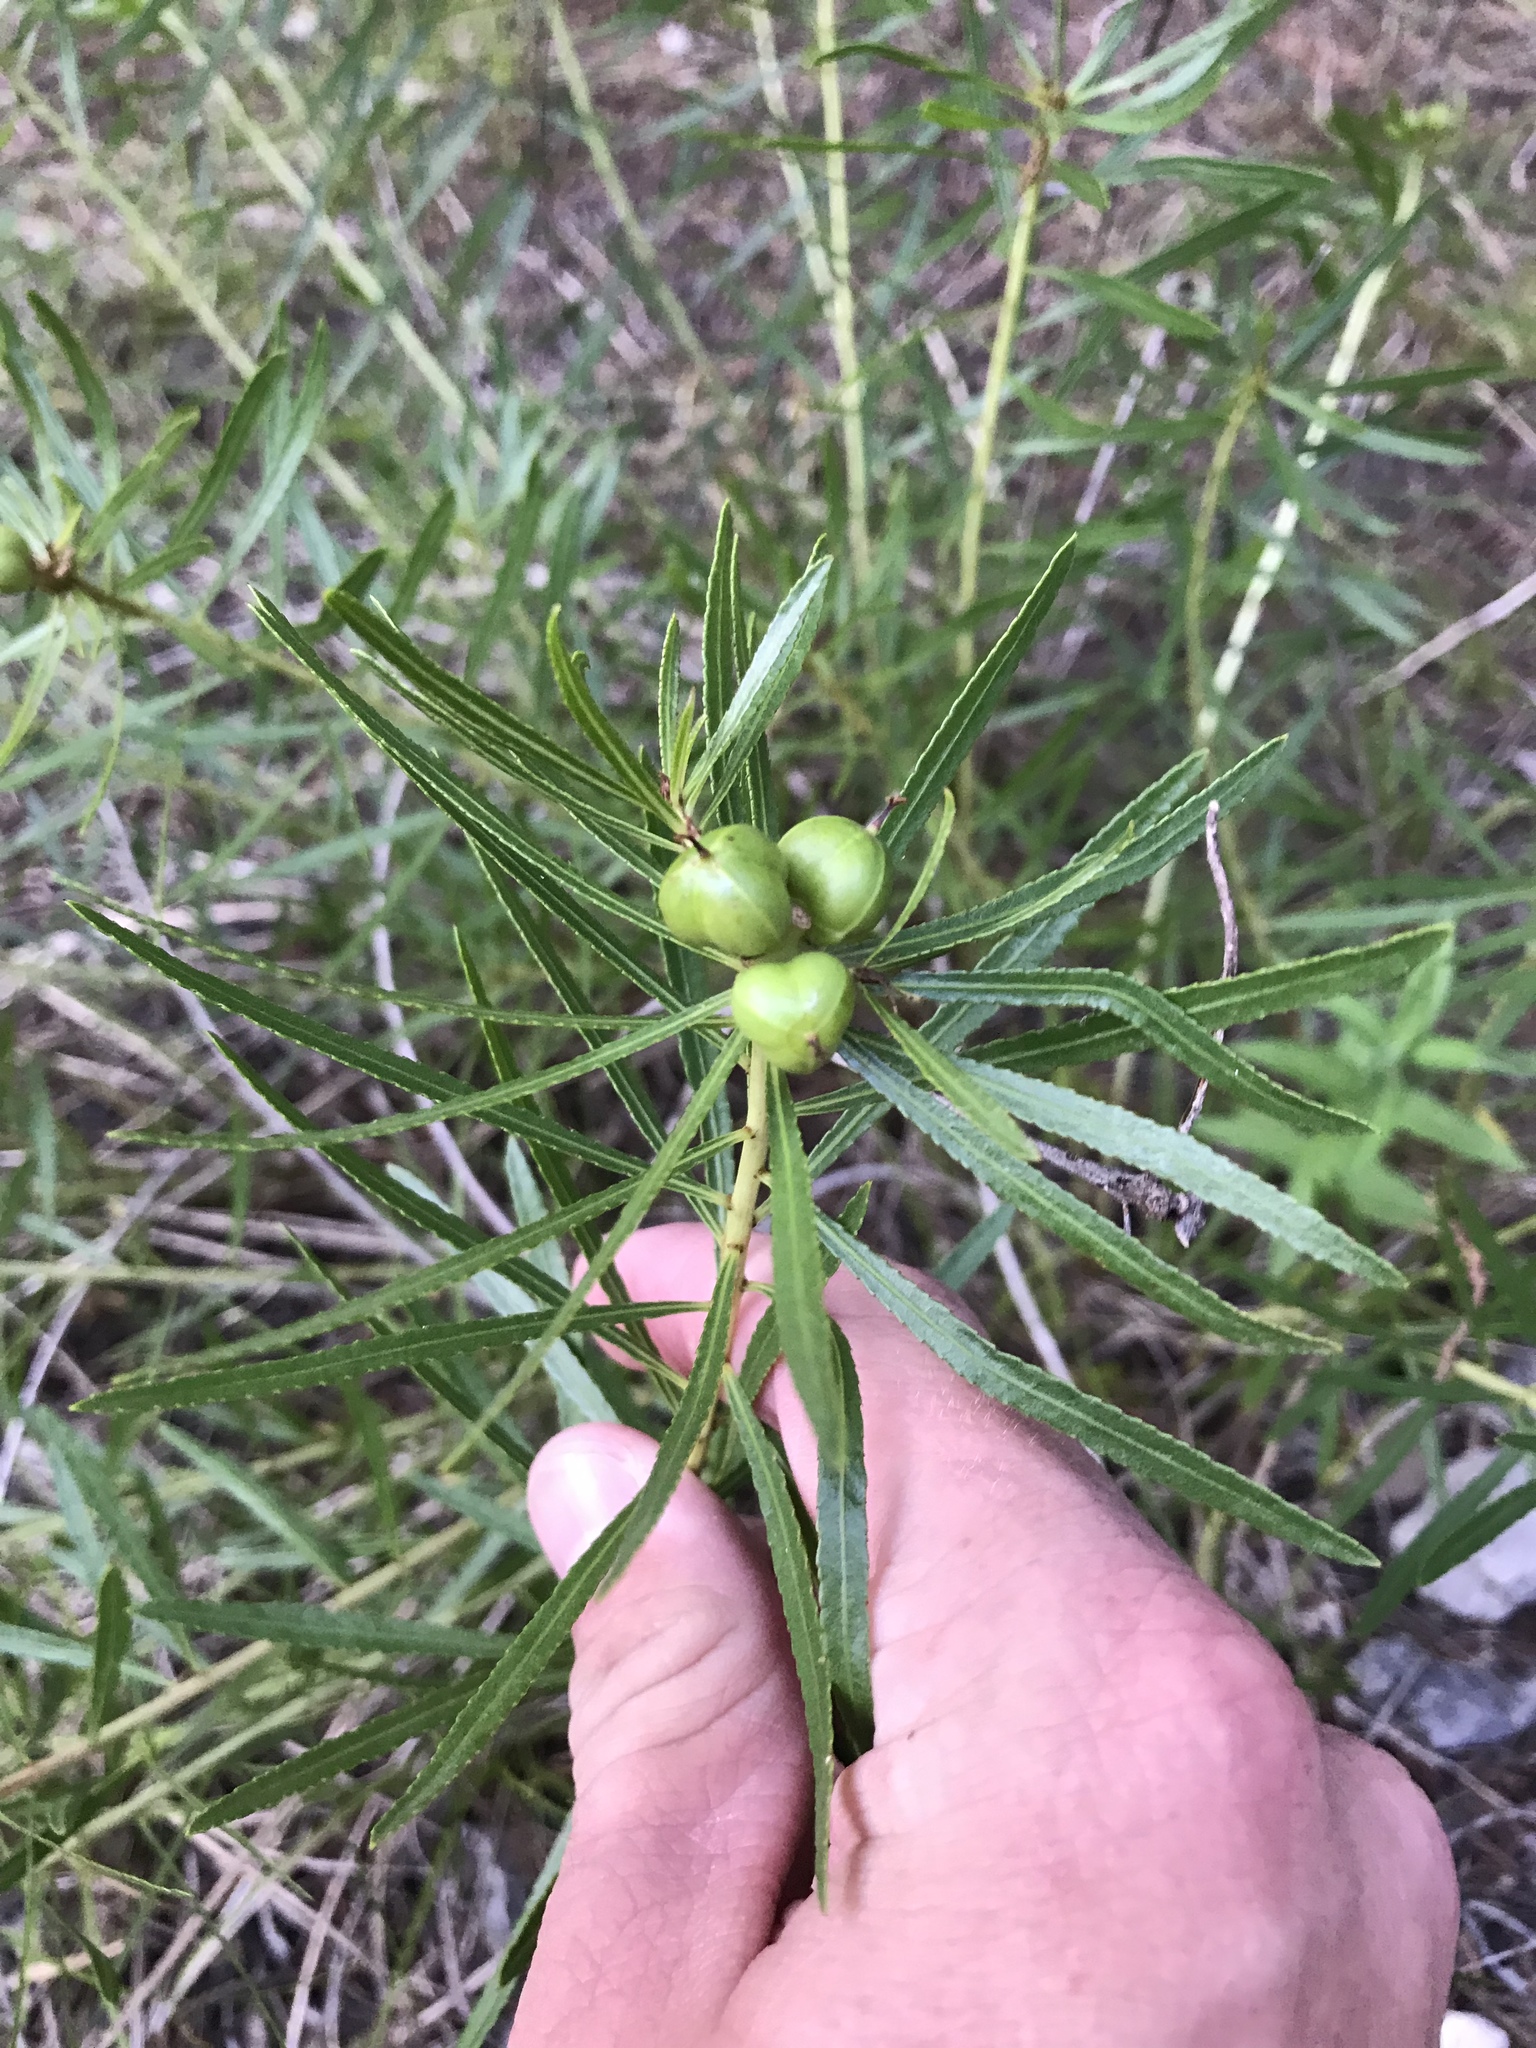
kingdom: Plantae
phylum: Tracheophyta
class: Magnoliopsida
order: Malpighiales
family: Euphorbiaceae
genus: Stillingia
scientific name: Stillingia texana
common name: Texas stillingia
